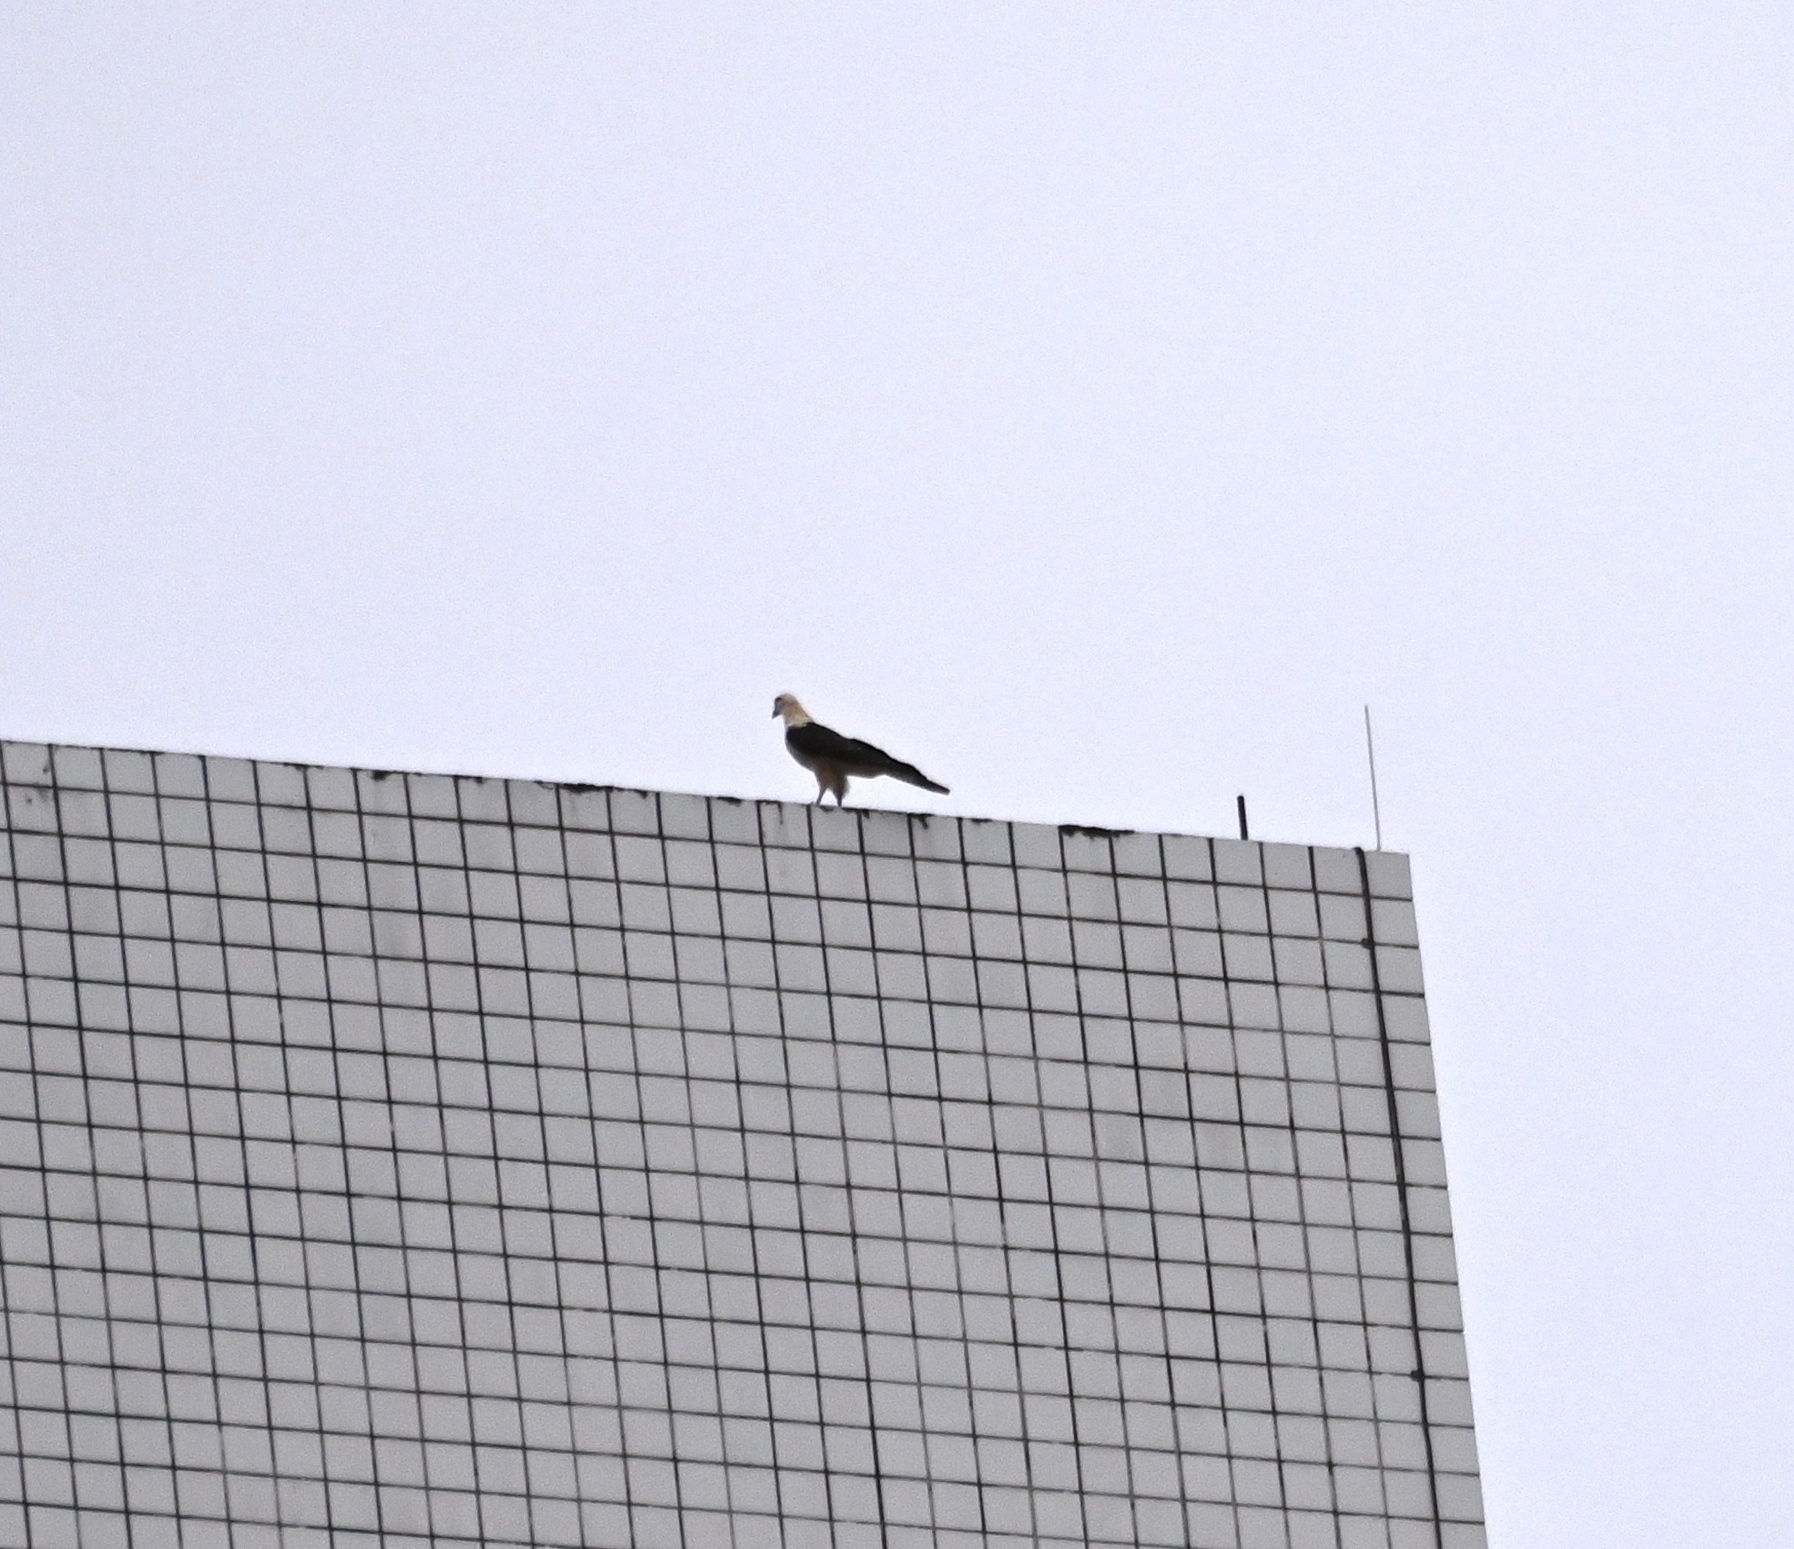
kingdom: Animalia
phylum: Chordata
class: Aves
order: Falconiformes
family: Falconidae
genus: Daptrius
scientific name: Daptrius
